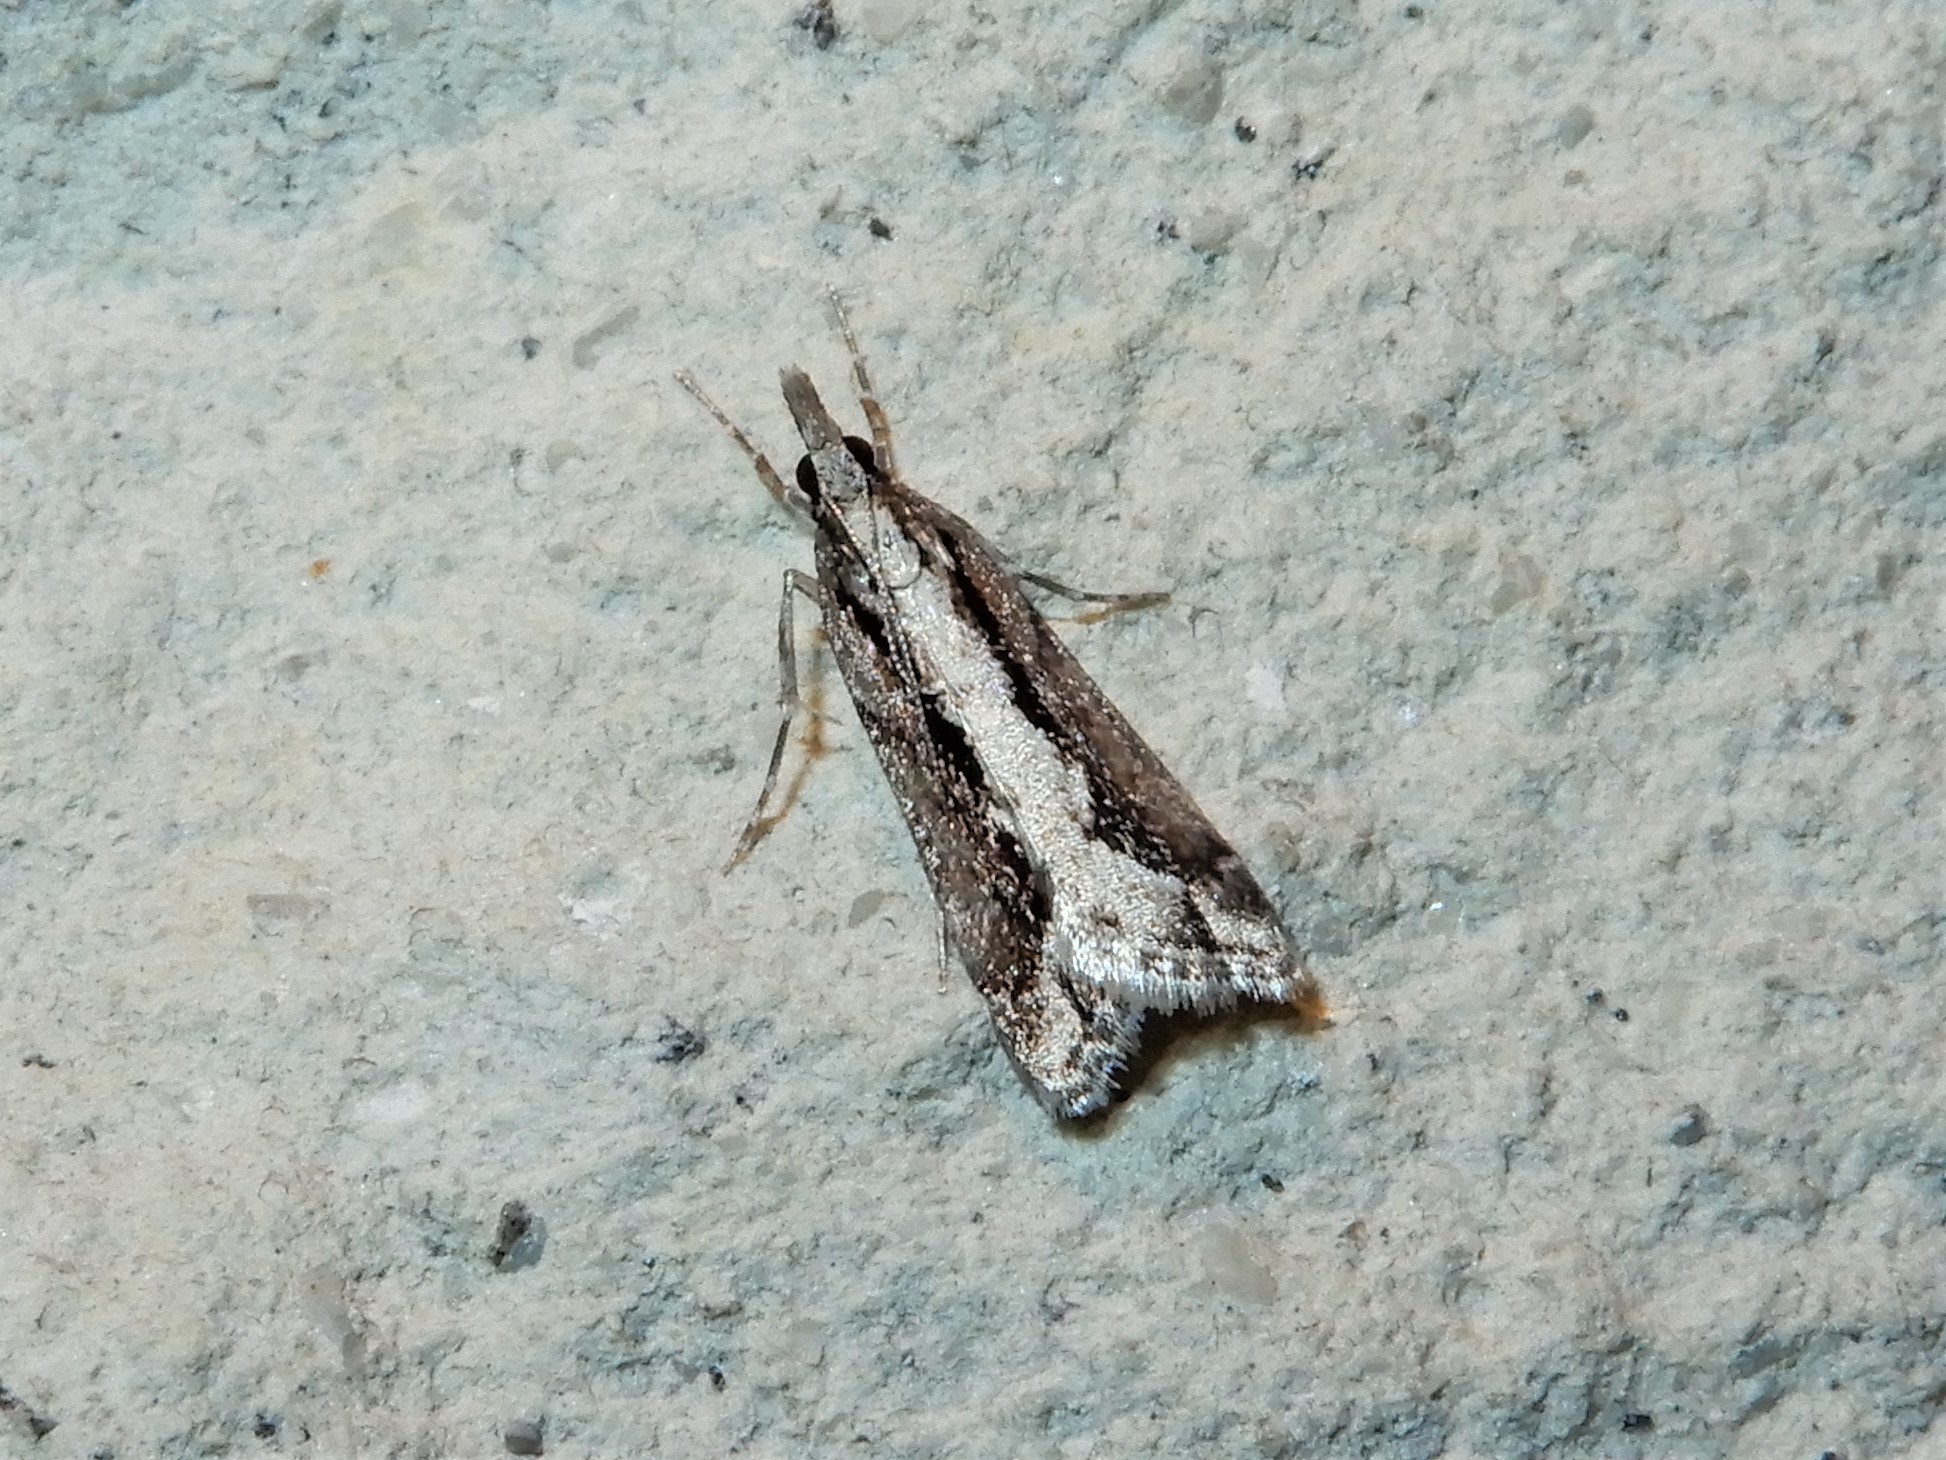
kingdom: Animalia
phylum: Arthropoda
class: Insecta
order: Lepidoptera
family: Crambidae
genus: Eudonia
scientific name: Eudonia steropaea
